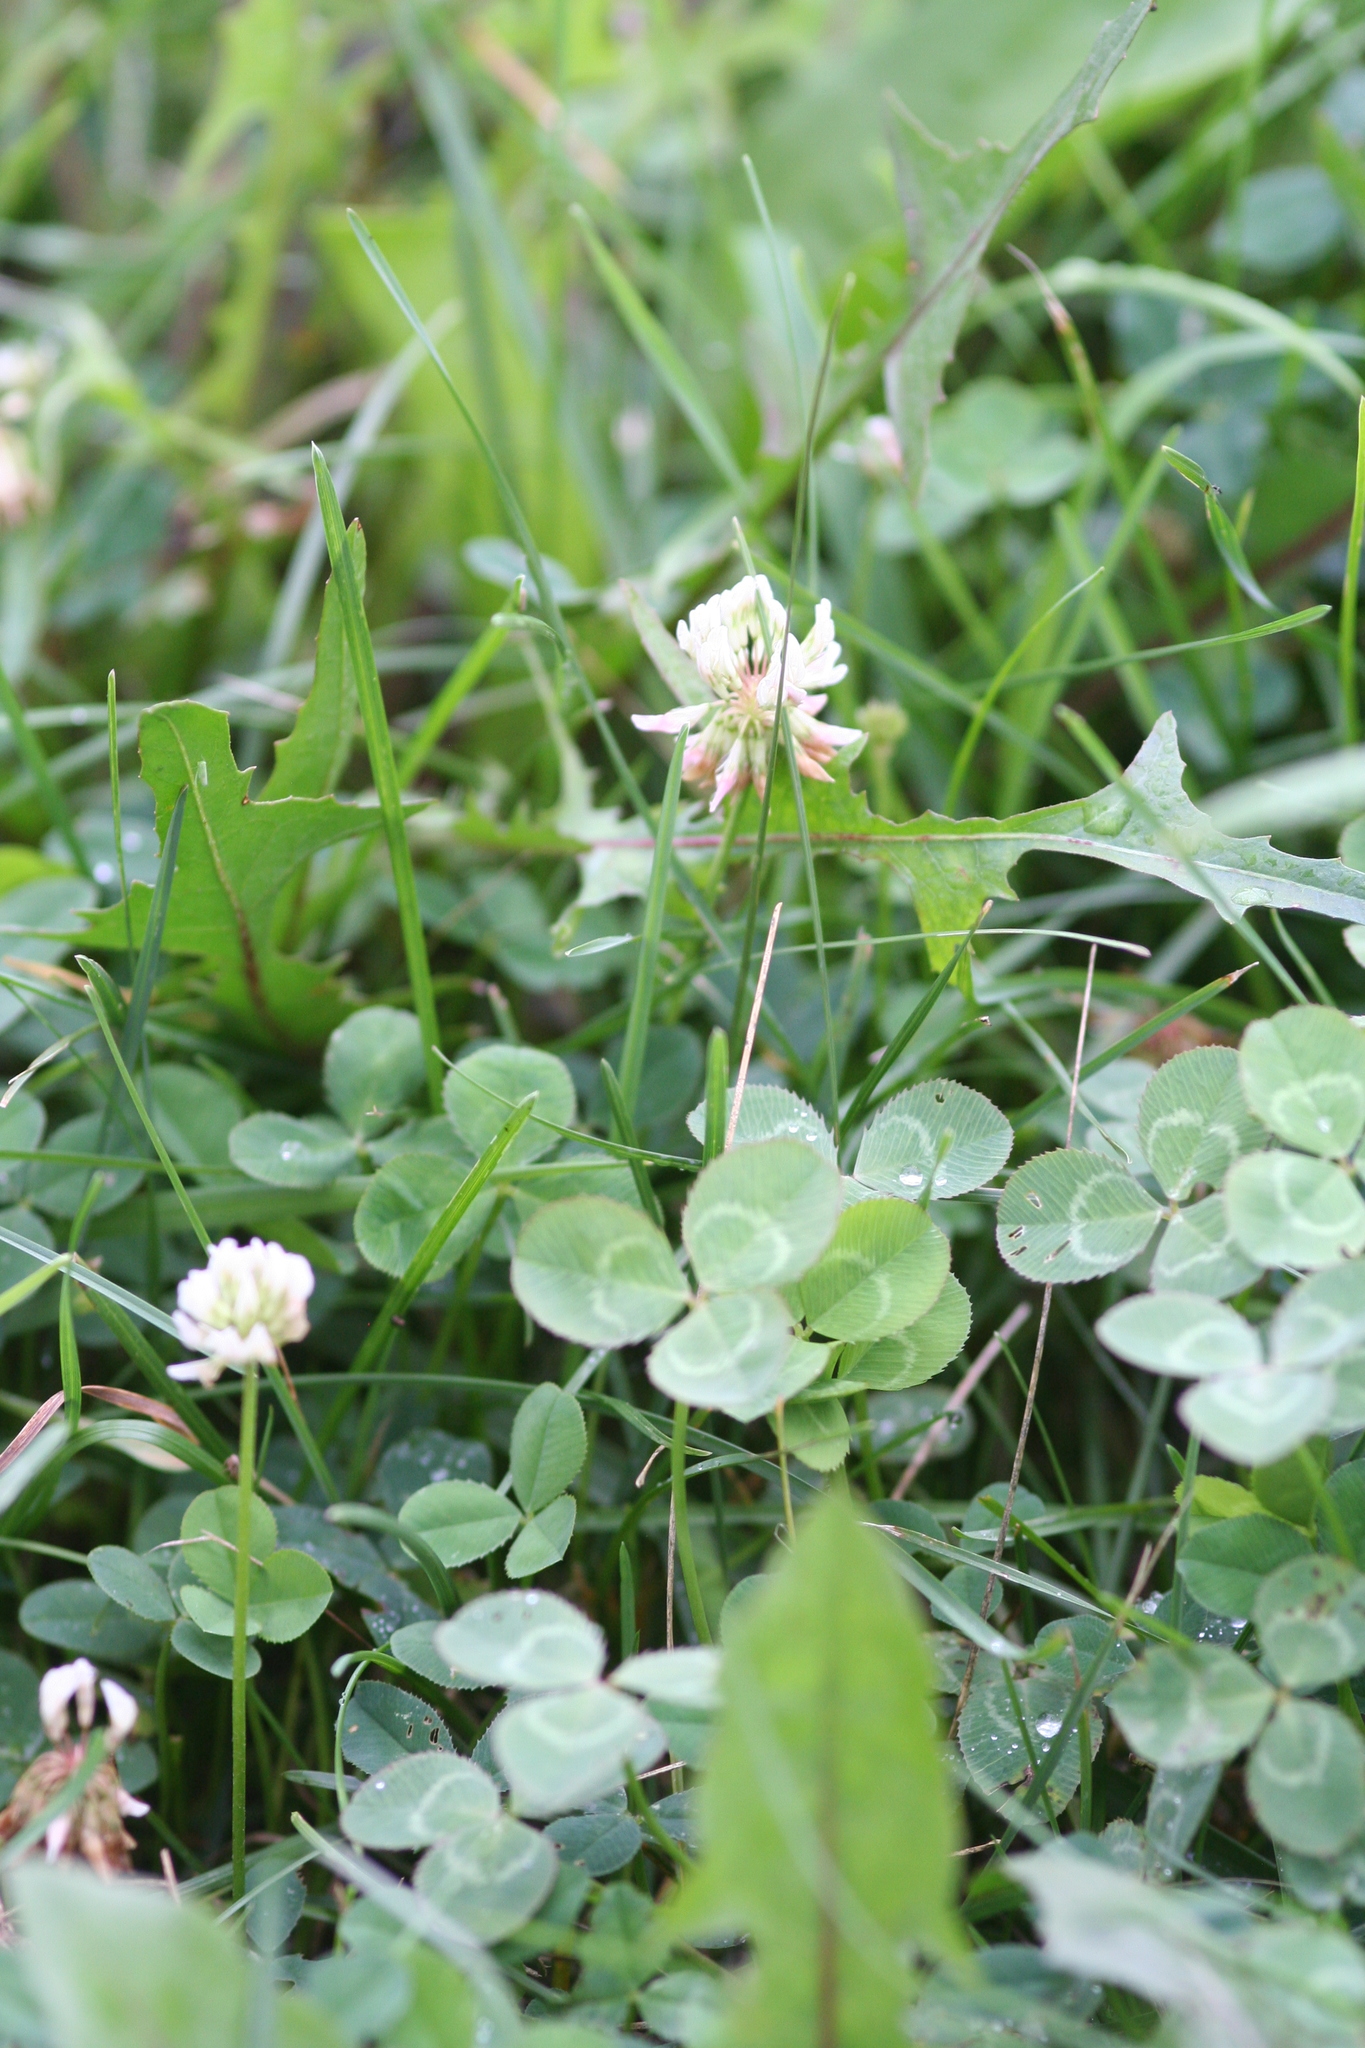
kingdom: Plantae
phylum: Tracheophyta
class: Magnoliopsida
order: Fabales
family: Fabaceae
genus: Trifolium
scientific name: Trifolium repens
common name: White clover
